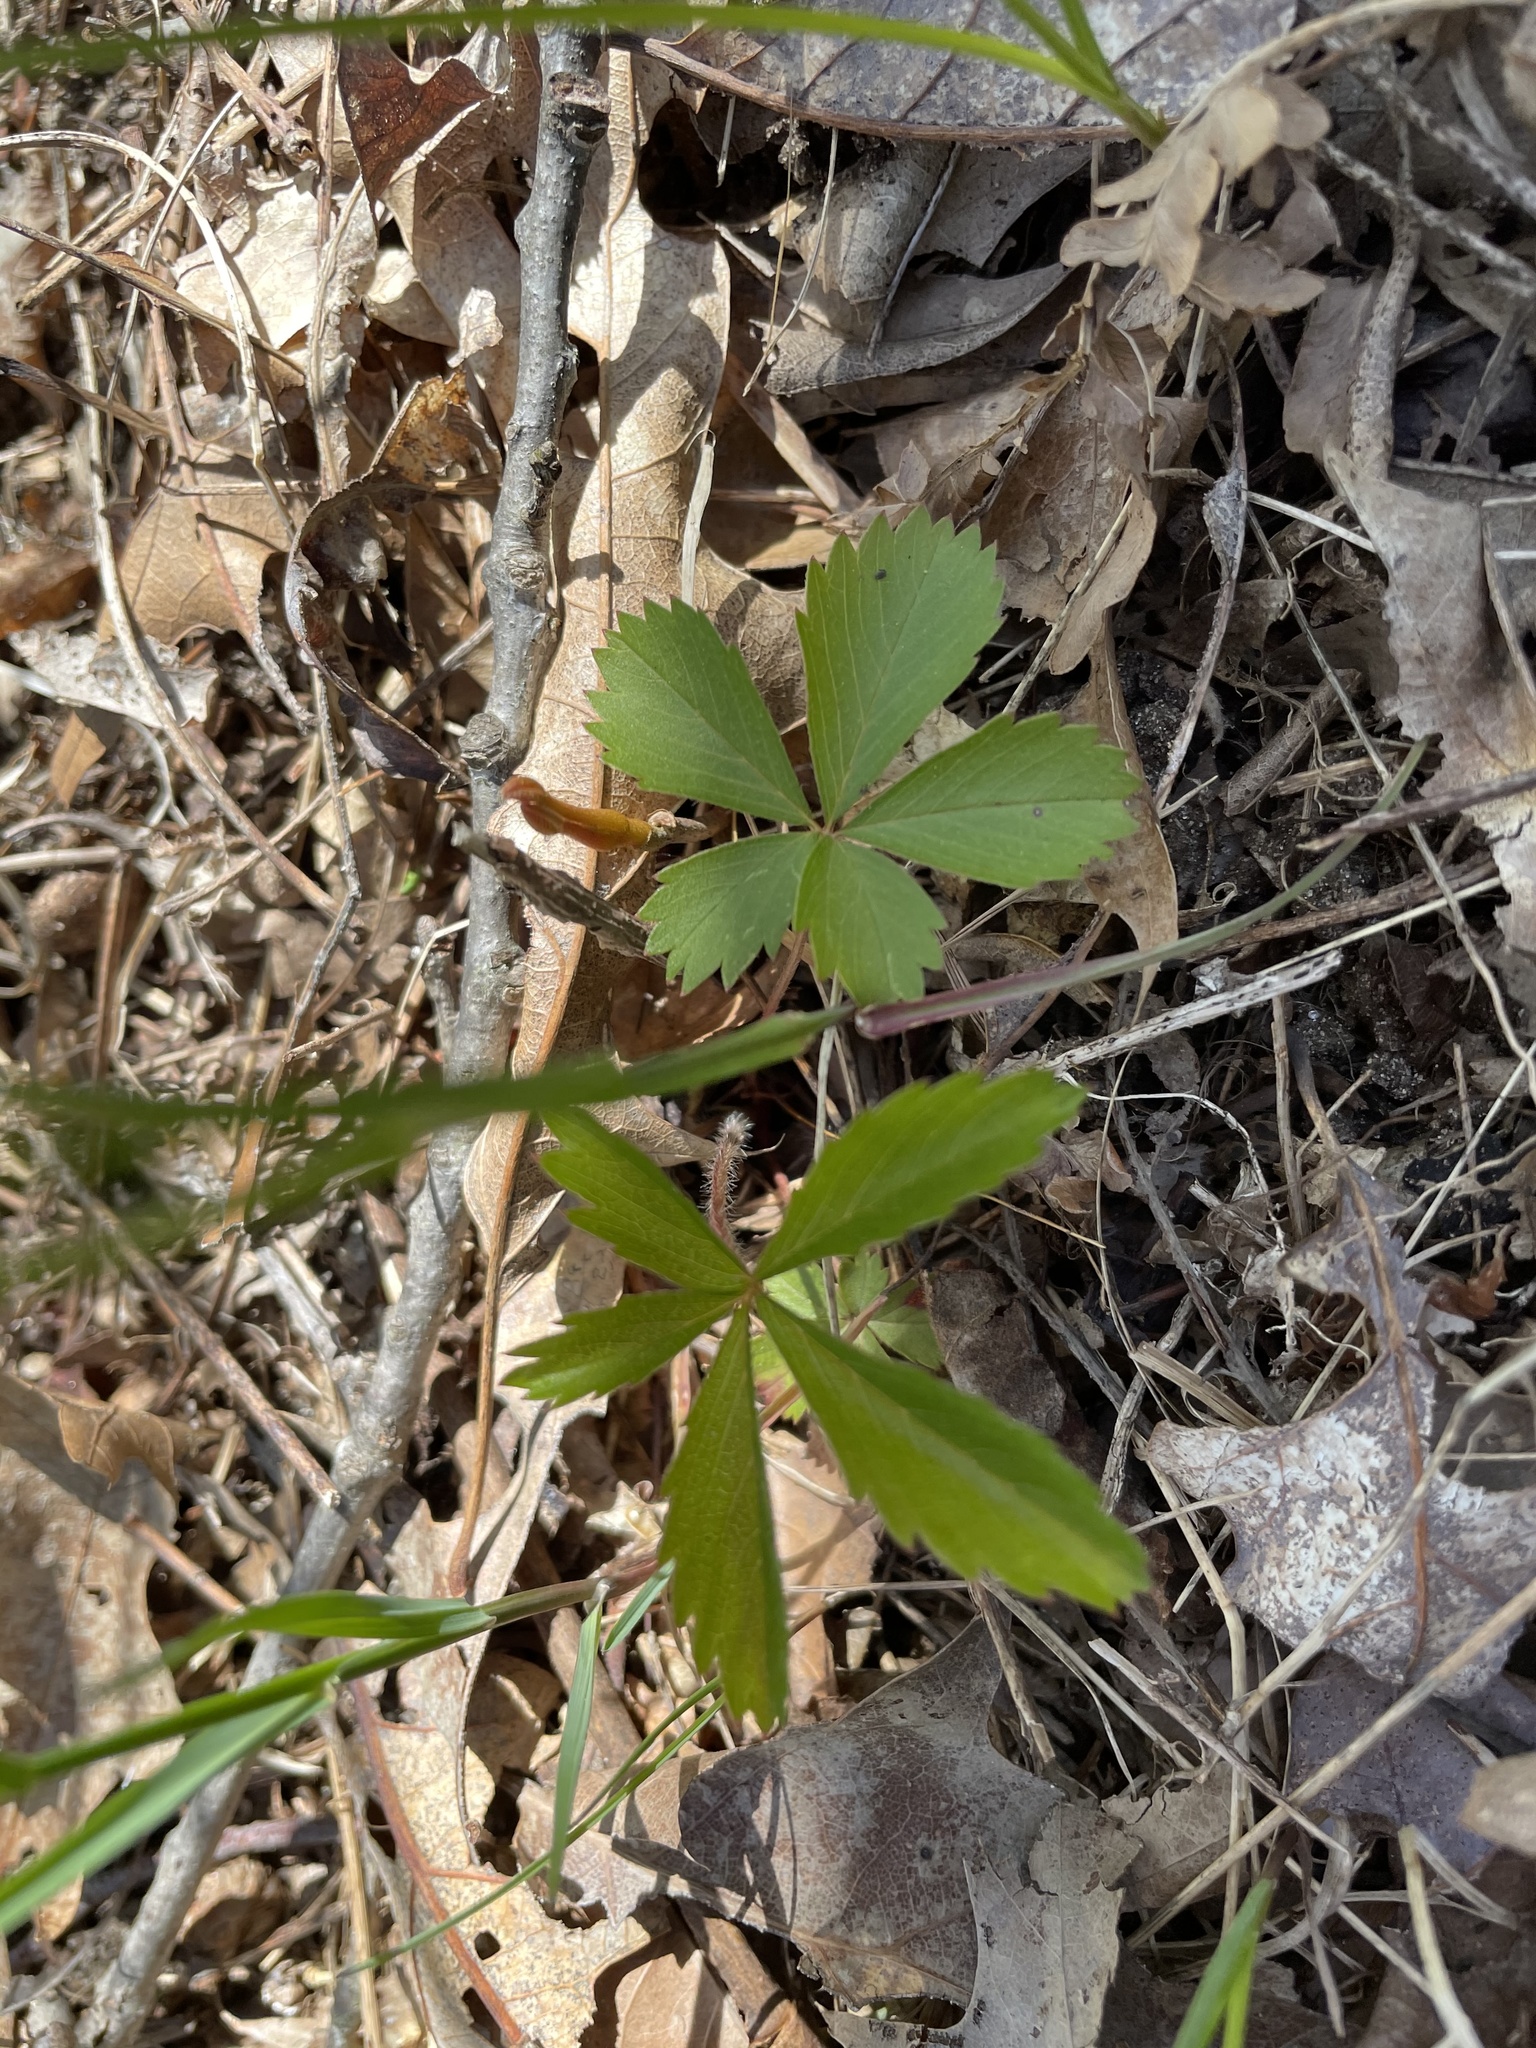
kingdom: Plantae
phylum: Tracheophyta
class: Magnoliopsida
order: Rosales
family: Rosaceae
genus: Potentilla
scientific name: Potentilla simplex
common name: Old field cinquefoil
